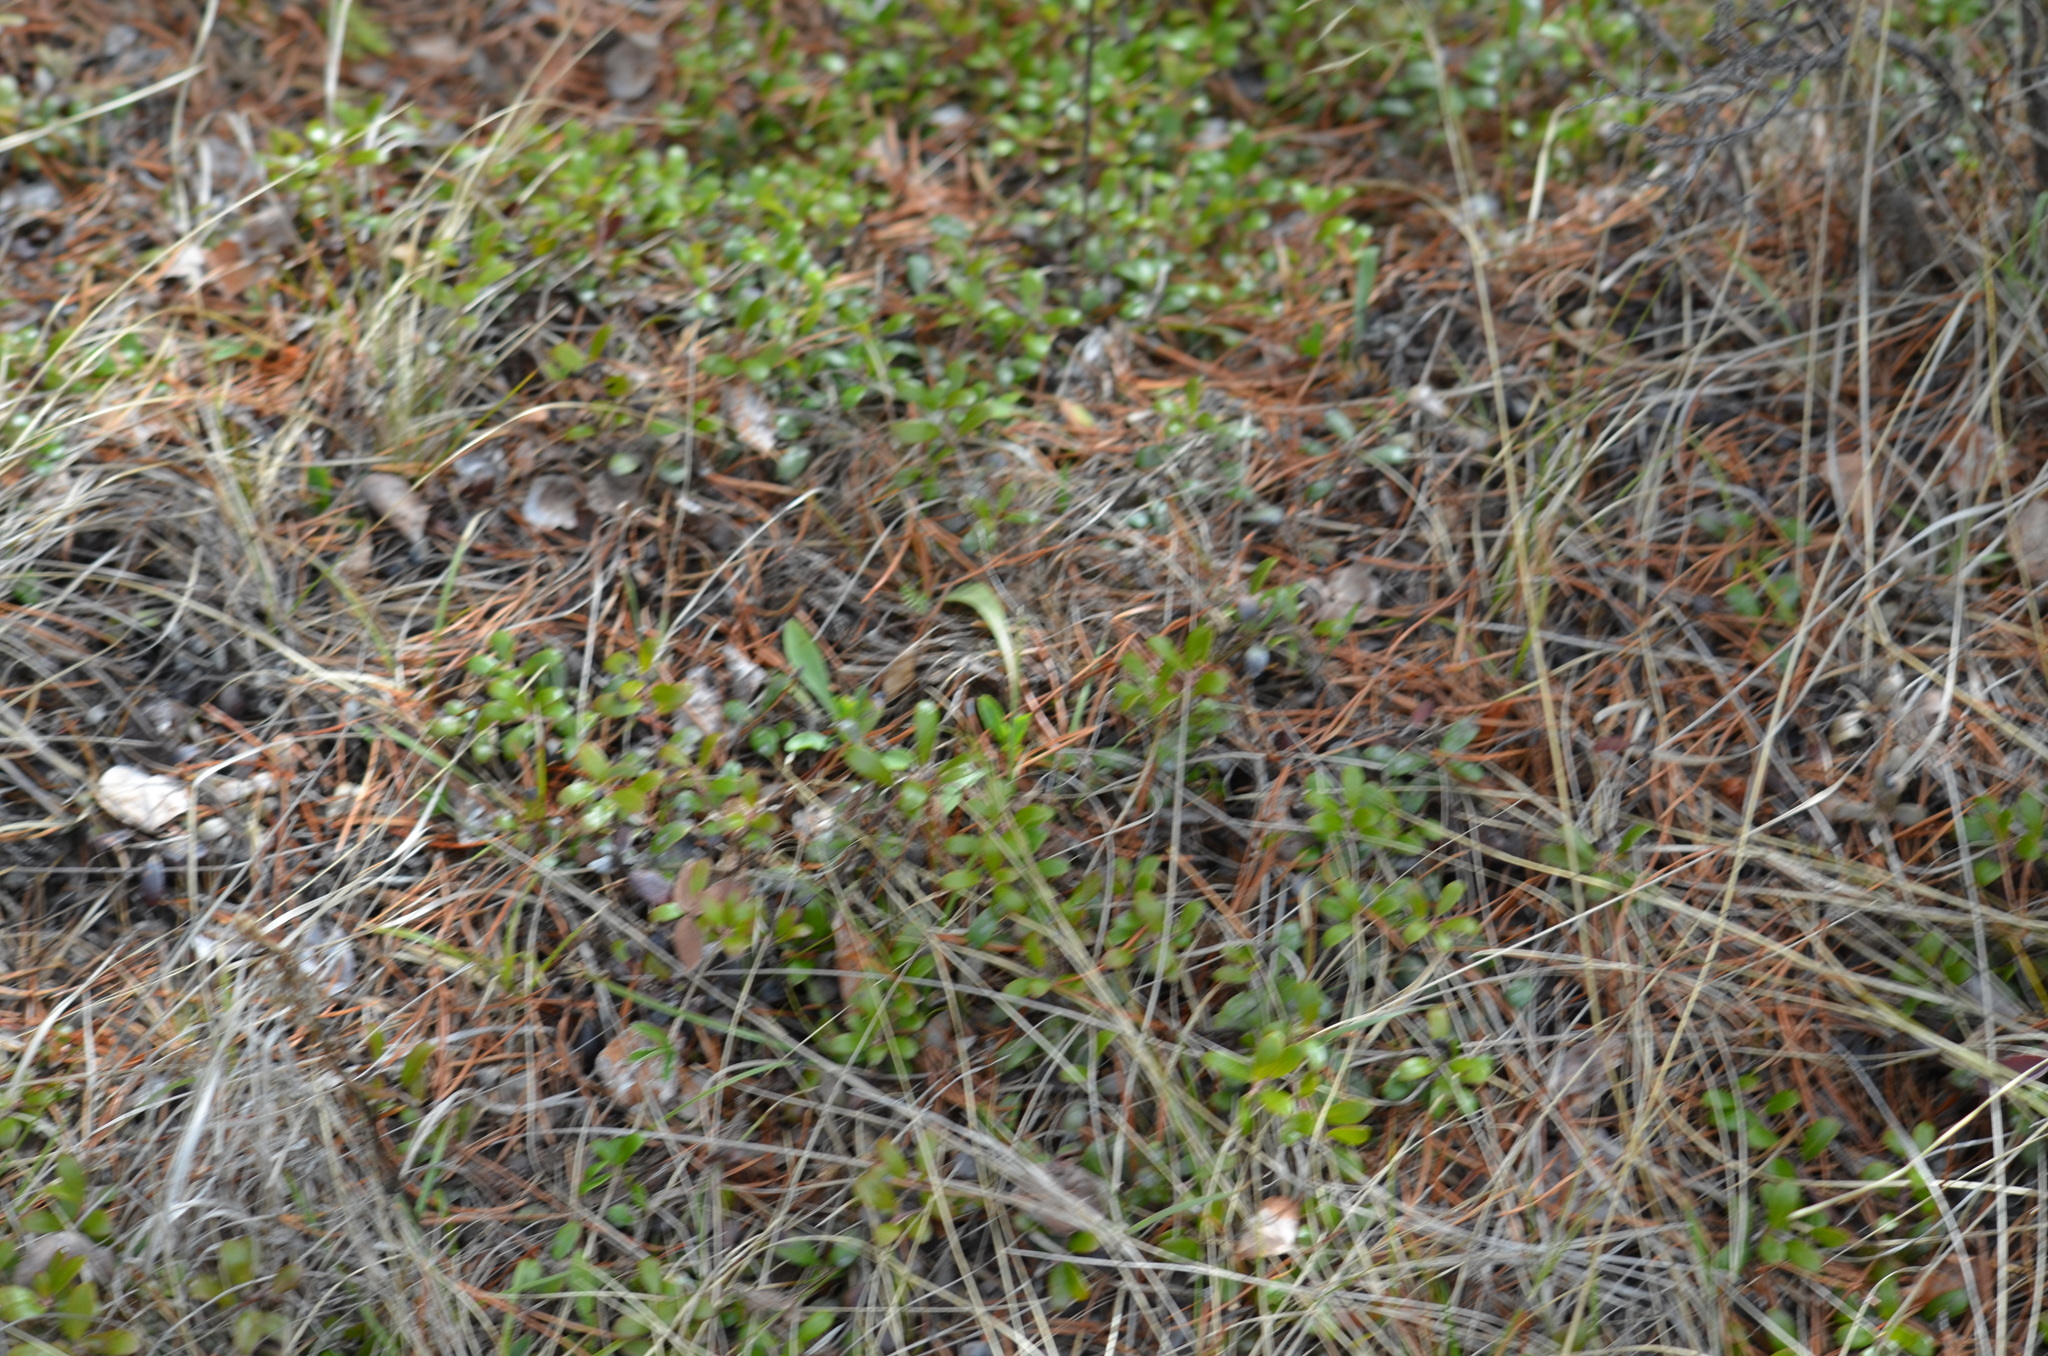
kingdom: Plantae
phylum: Tracheophyta
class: Magnoliopsida
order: Ericales
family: Ericaceae
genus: Arctostaphylos
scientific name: Arctostaphylos uva-ursi
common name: Bearberry
